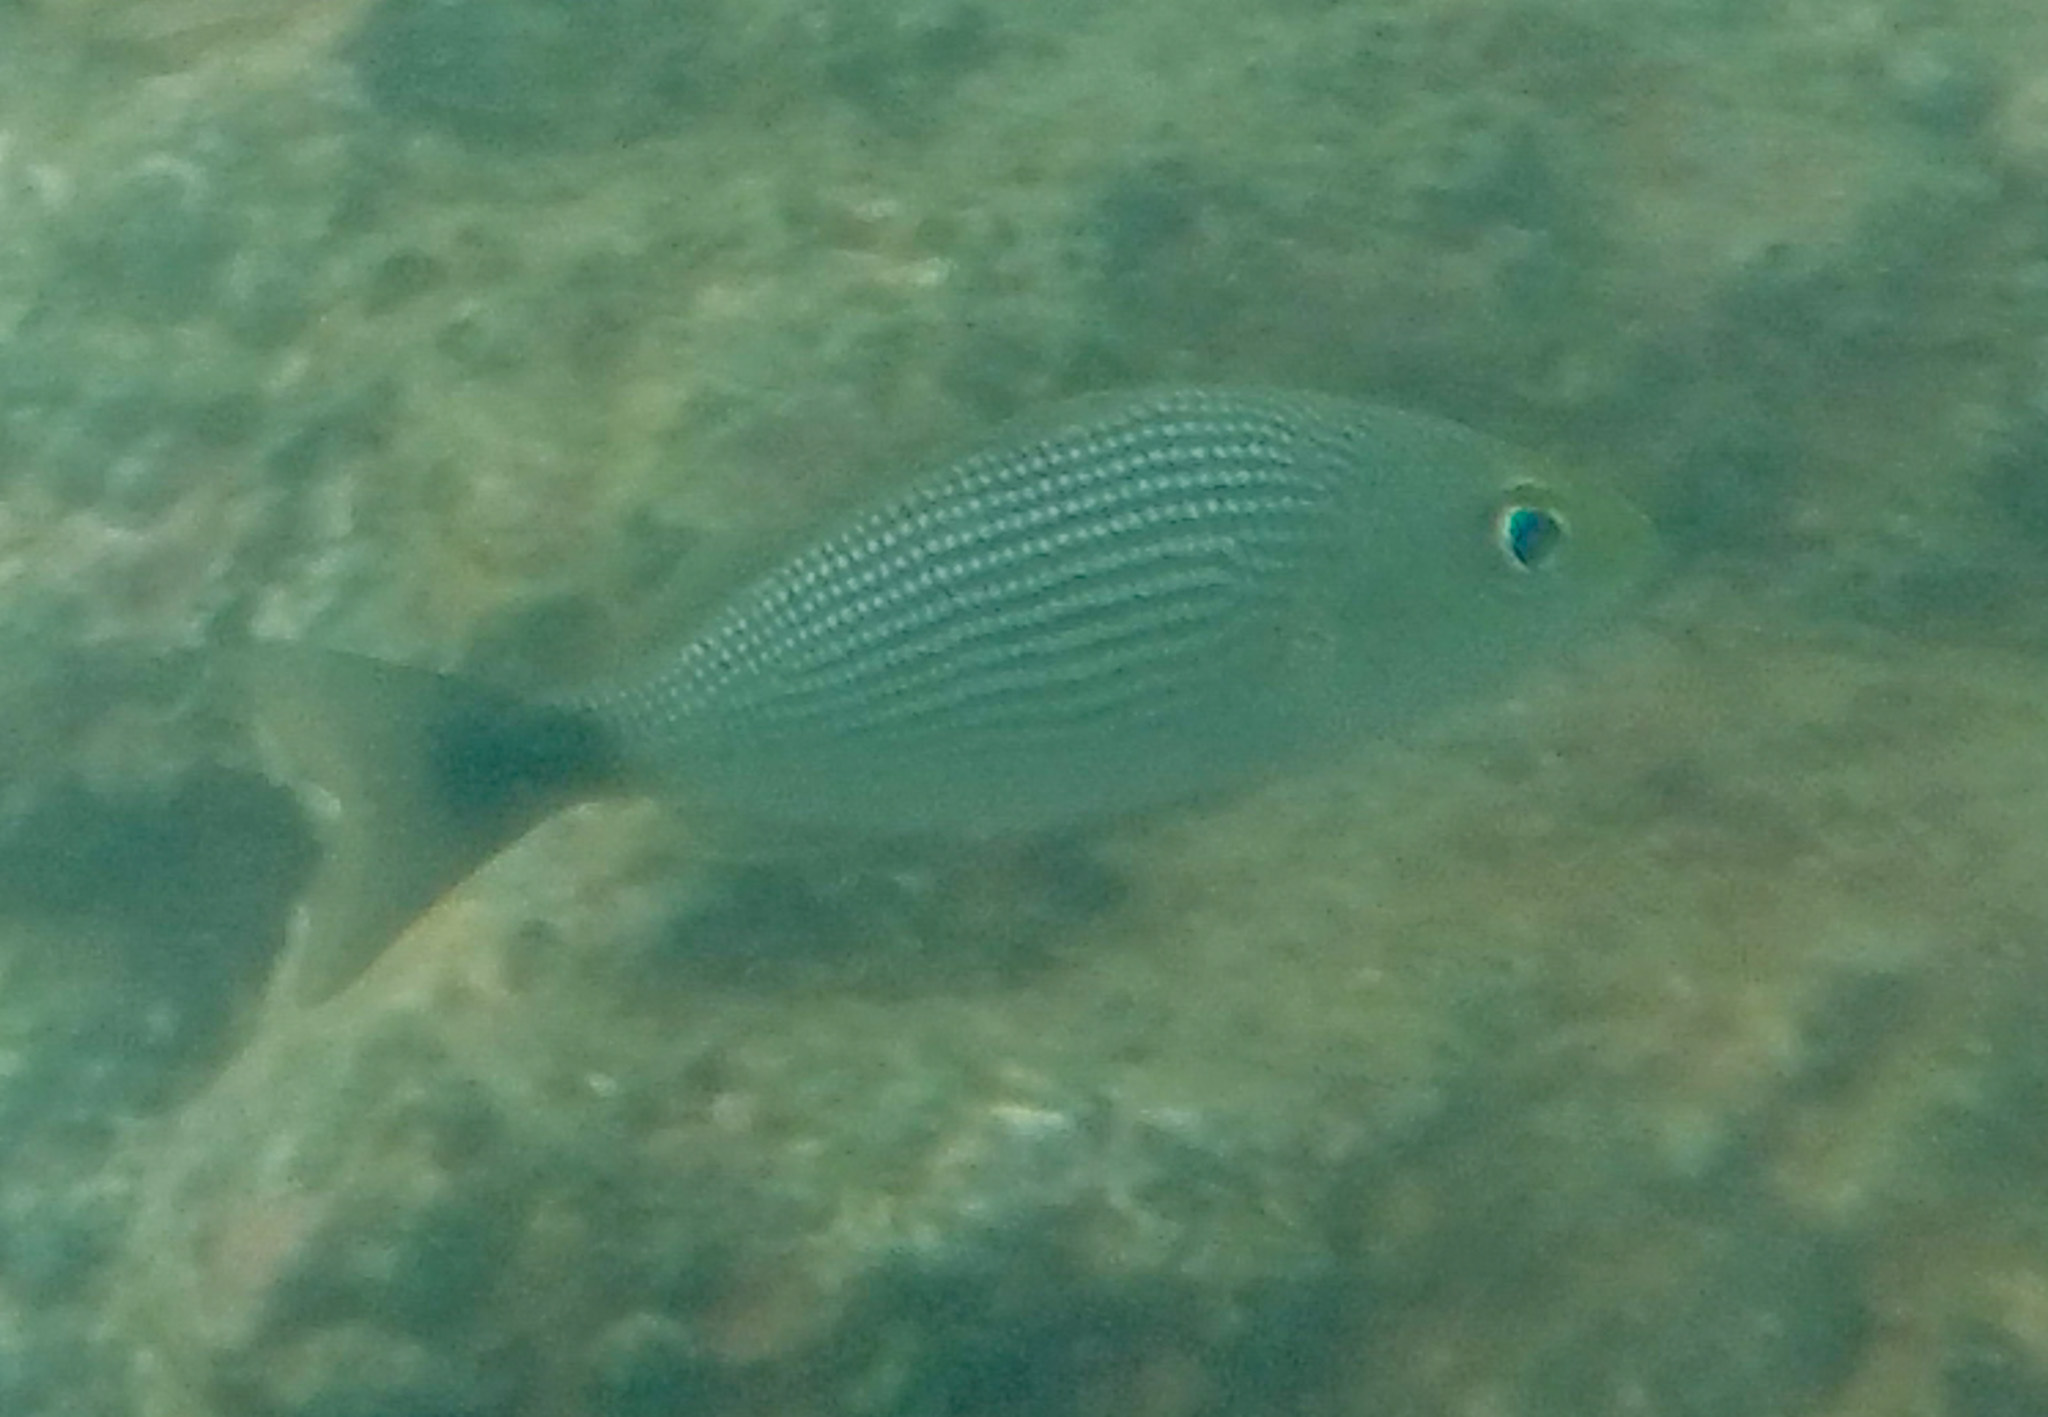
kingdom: Animalia
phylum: Chordata
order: Perciformes
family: Haemulidae
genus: Haemulon
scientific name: Haemulon maculicauda
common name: Spottail grunt
